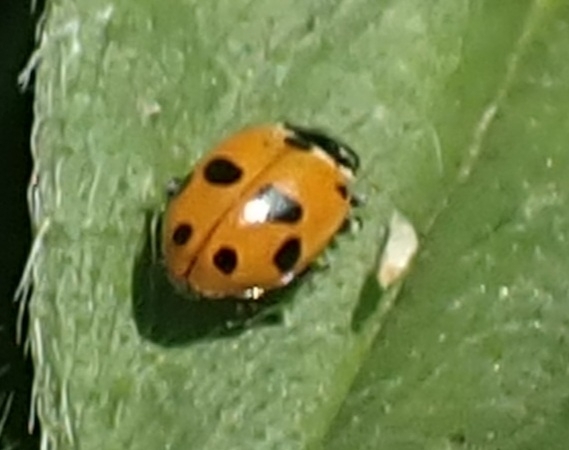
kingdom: Animalia
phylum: Arthropoda
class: Insecta
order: Coleoptera
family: Coccinellidae
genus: Hippodamia
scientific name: Hippodamia variegata
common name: Ladybird beetle
